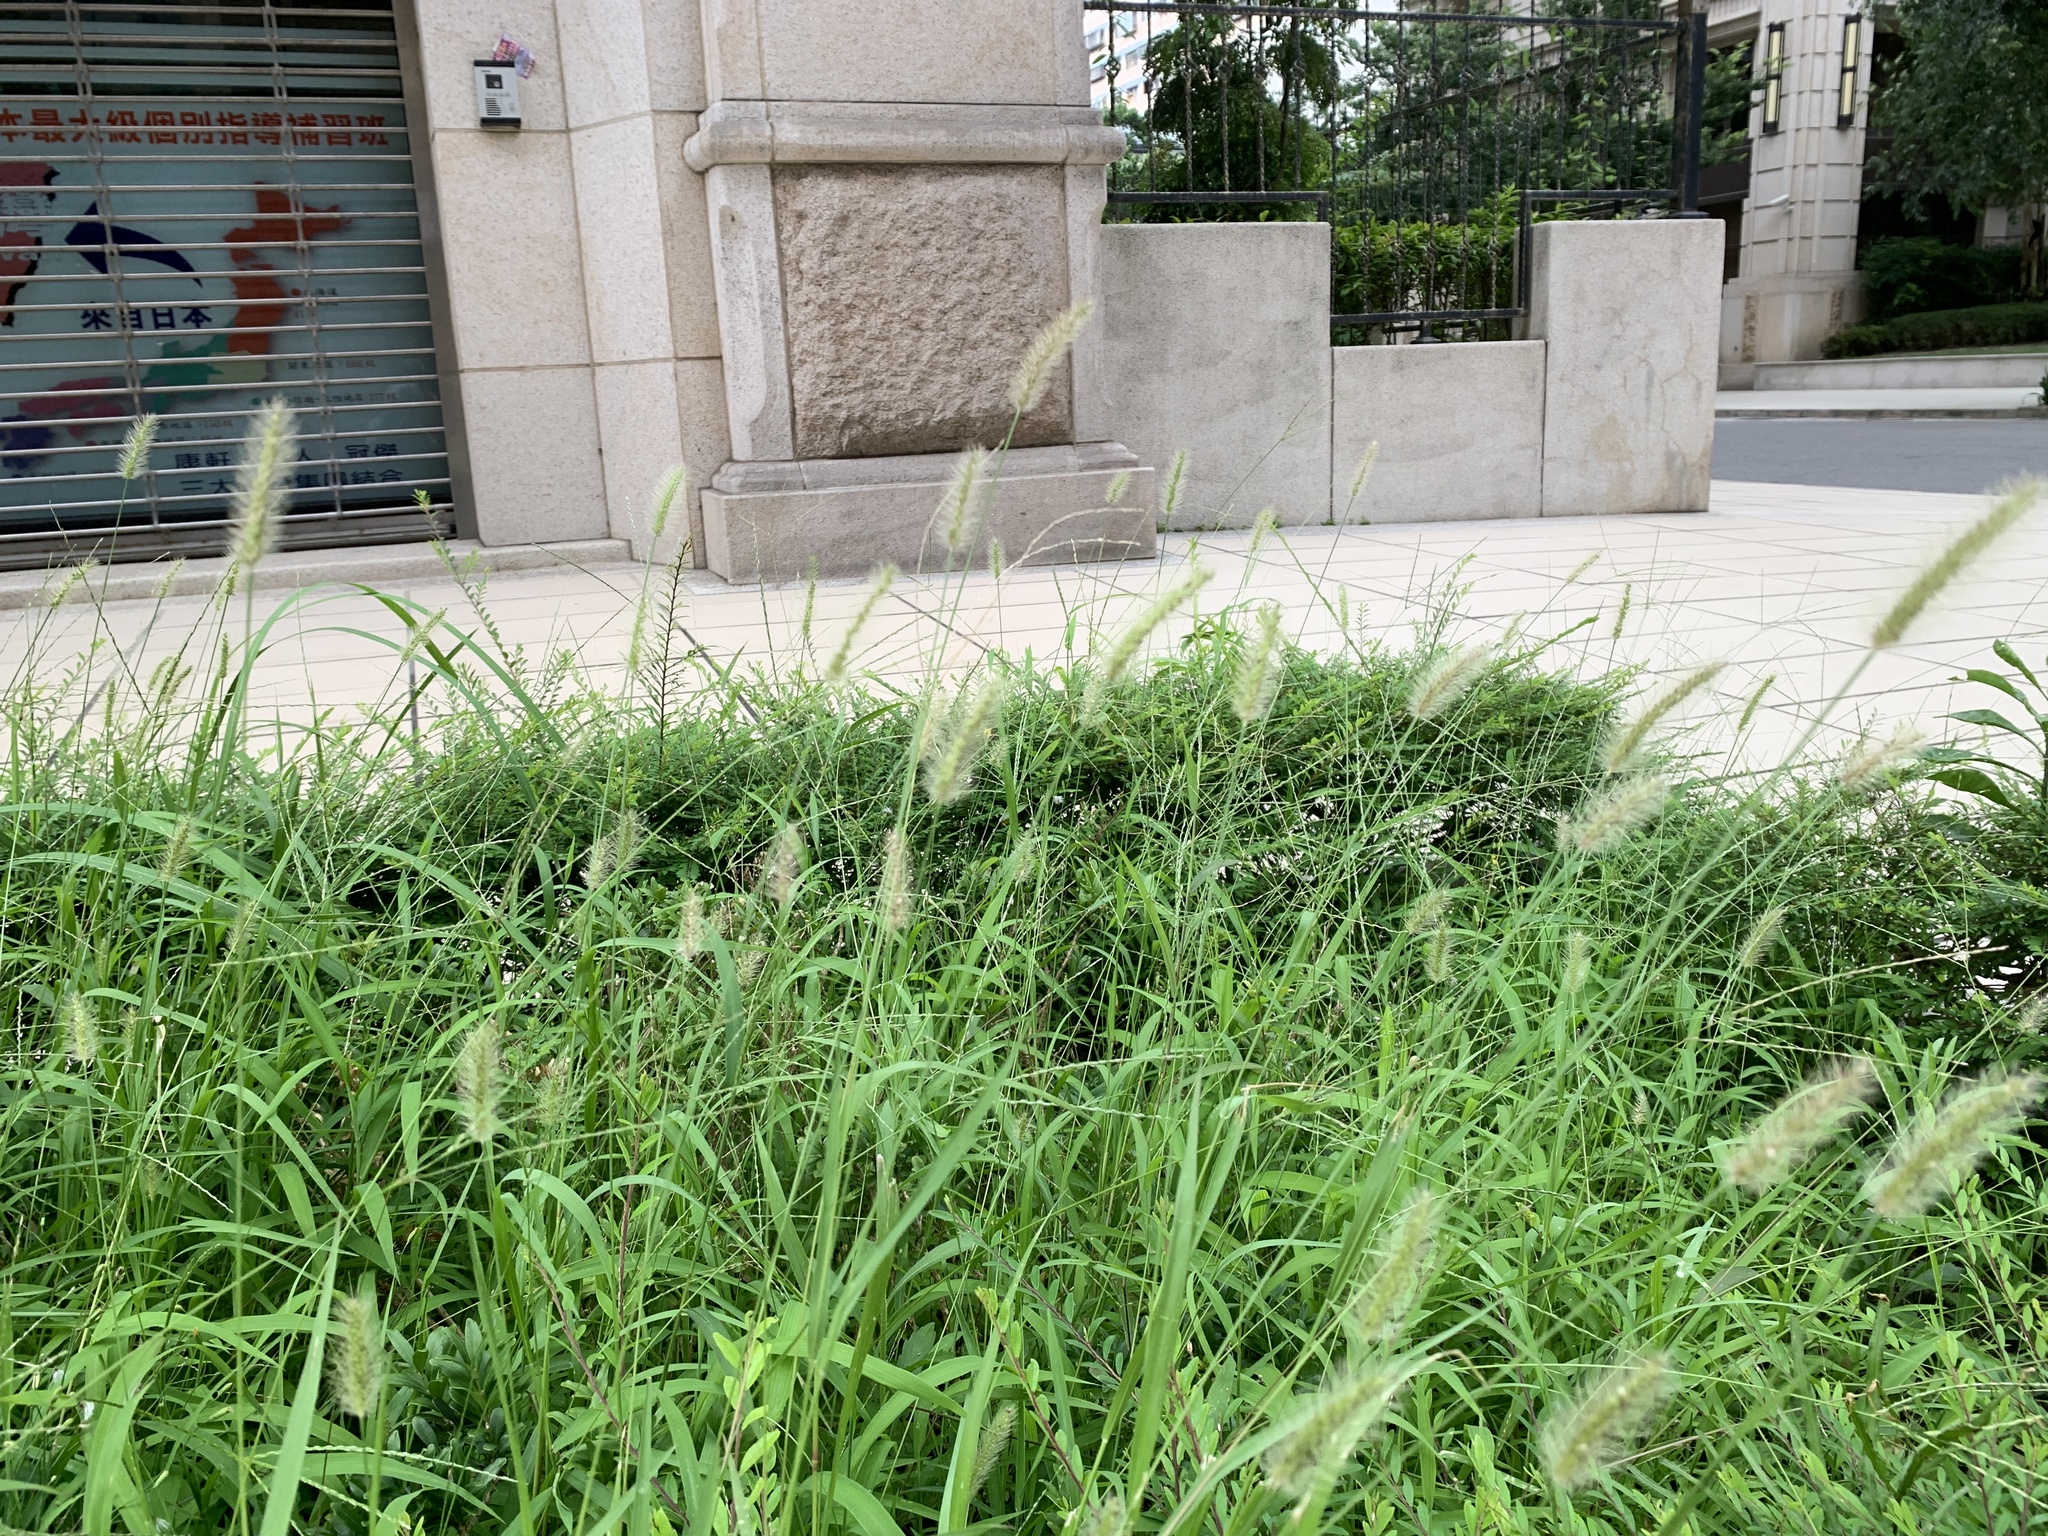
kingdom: Plantae
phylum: Tracheophyta
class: Liliopsida
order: Poales
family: Poaceae
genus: Setaria
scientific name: Setaria parviflora
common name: Knotroot bristle-grass
